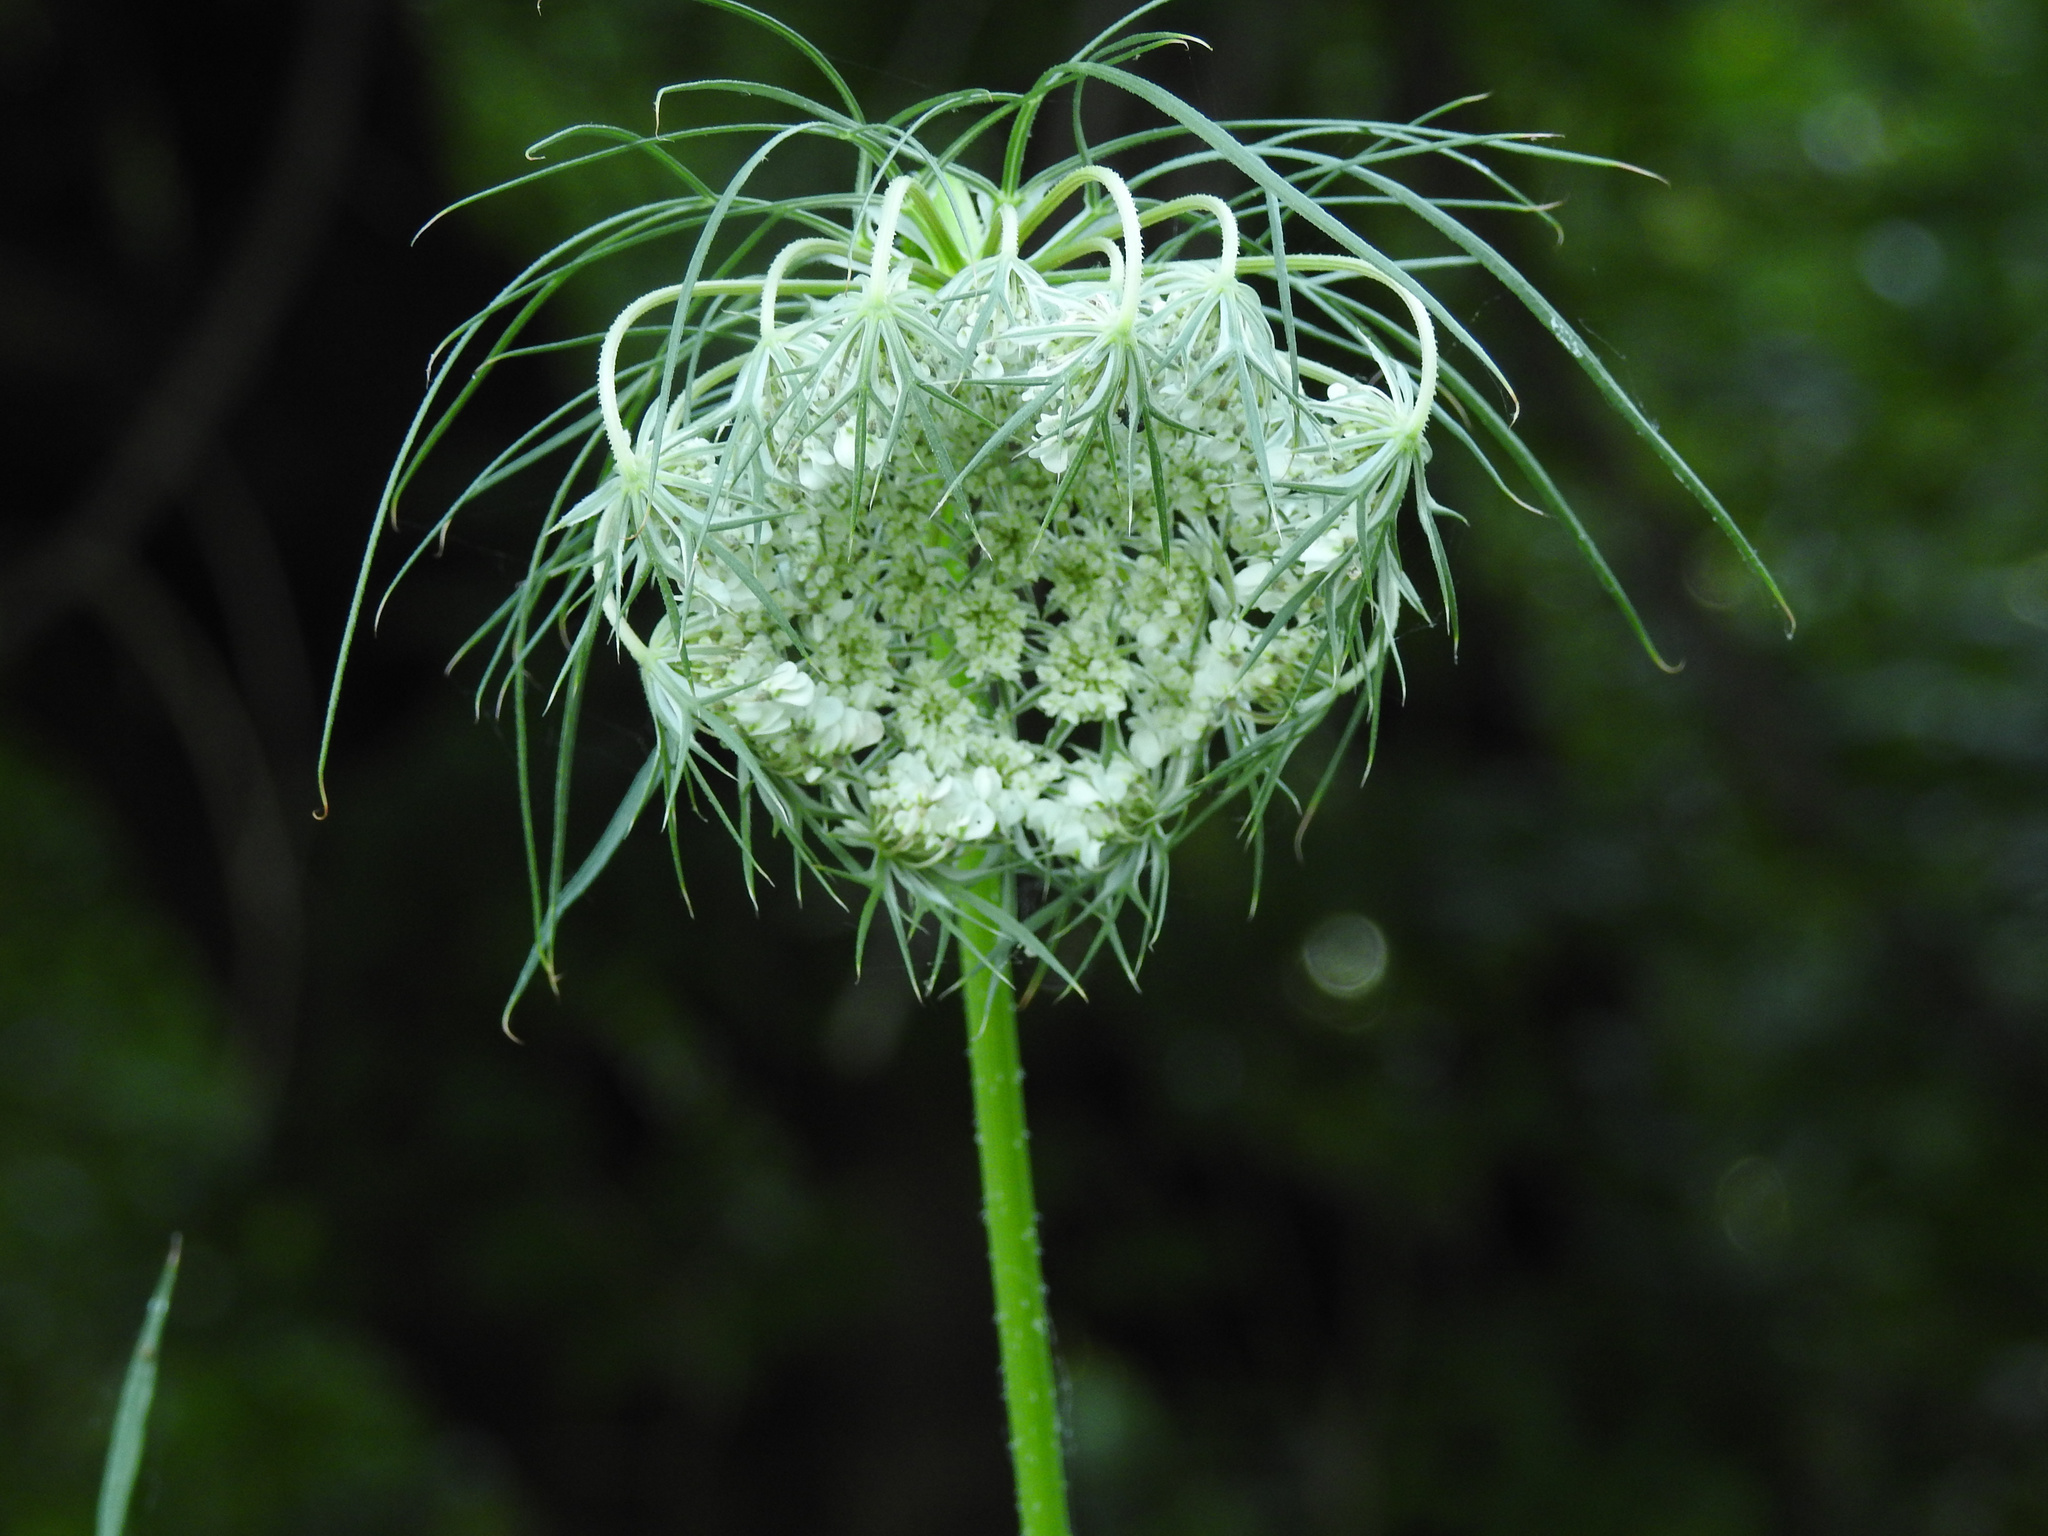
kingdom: Plantae
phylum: Tracheophyta
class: Magnoliopsida
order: Apiales
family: Apiaceae
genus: Daucus
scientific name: Daucus carota
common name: Wild carrot
